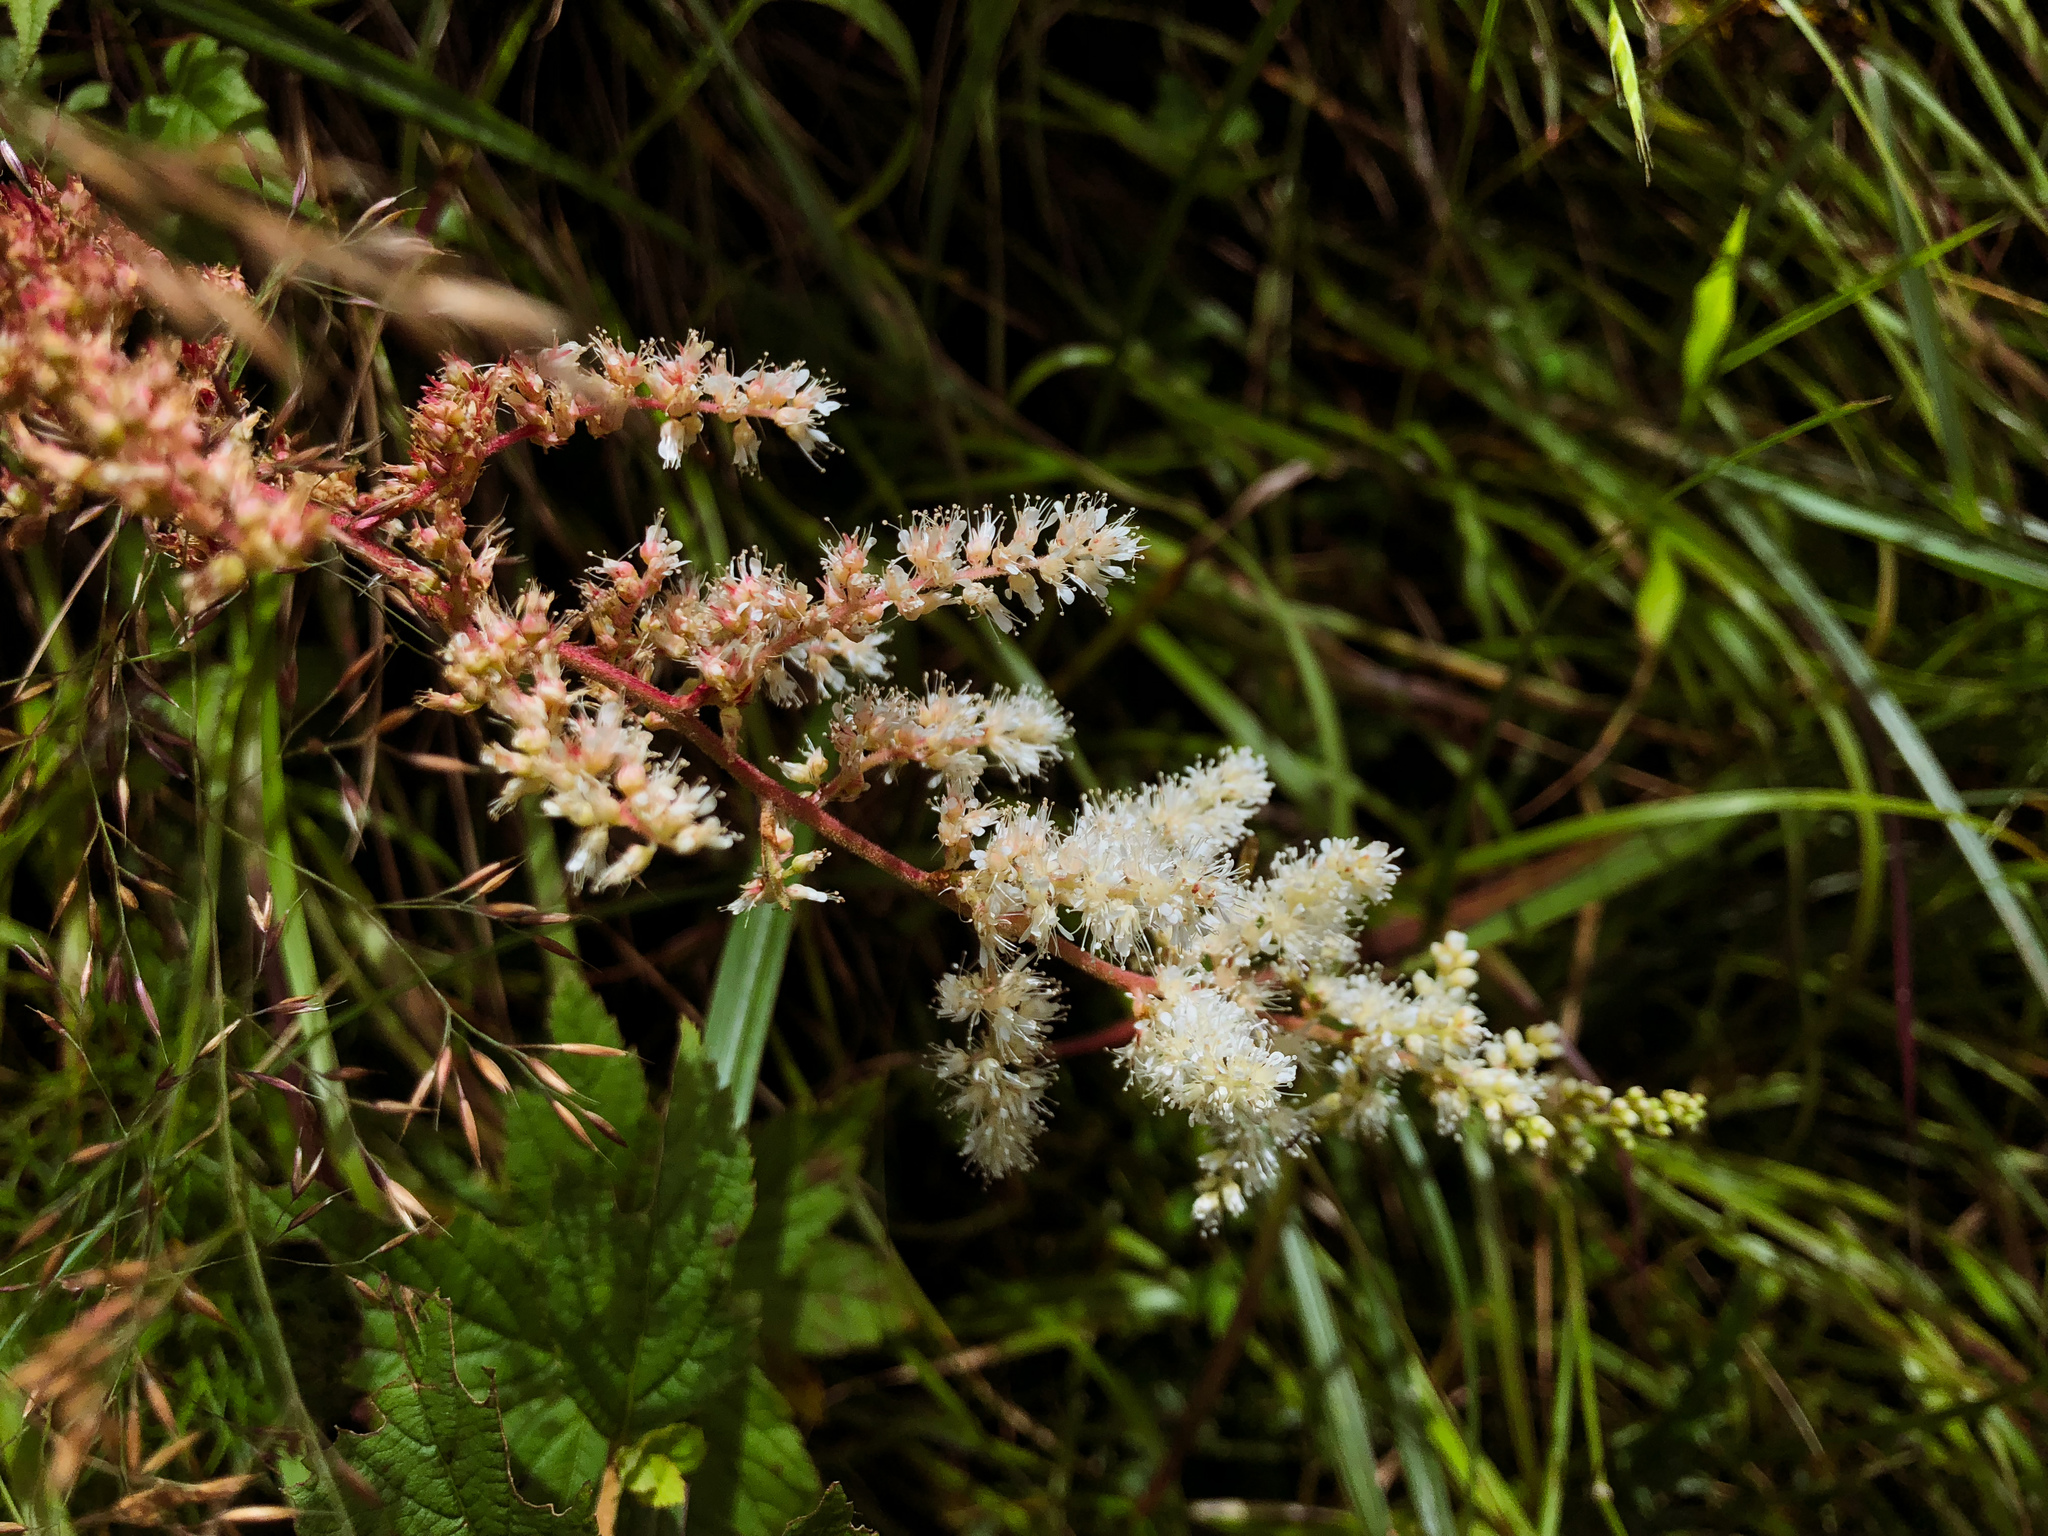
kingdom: Plantae
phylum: Tracheophyta
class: Magnoliopsida
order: Saxifragales
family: Saxifragaceae
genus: Astilbe
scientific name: Astilbe longicarpa
